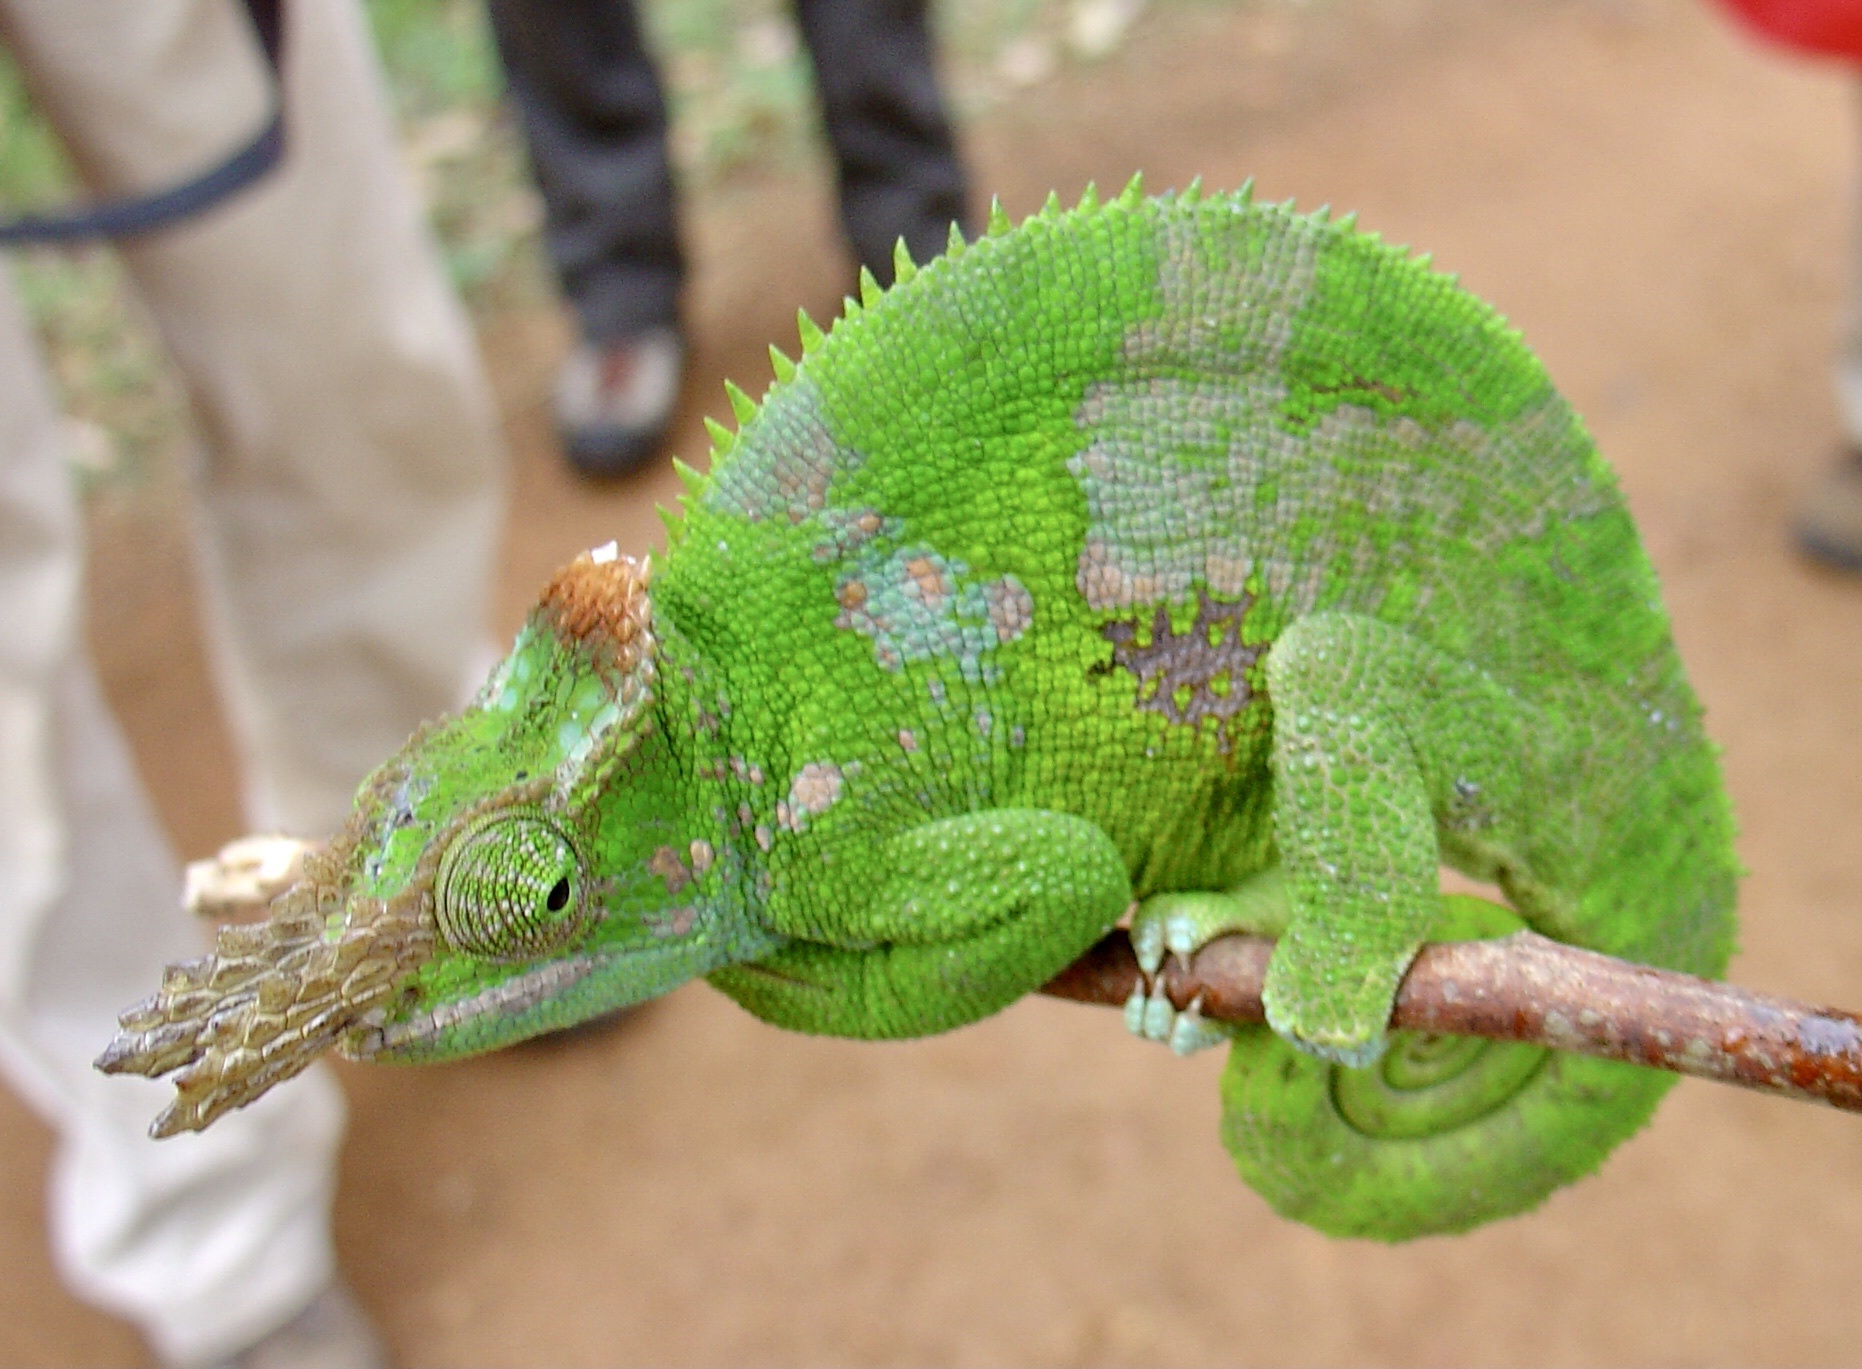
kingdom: Animalia
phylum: Chordata
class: Squamata
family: Chamaeleonidae
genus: Kinyongia
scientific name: Kinyongia multituberculata
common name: West usambara blade-horned chameleon
